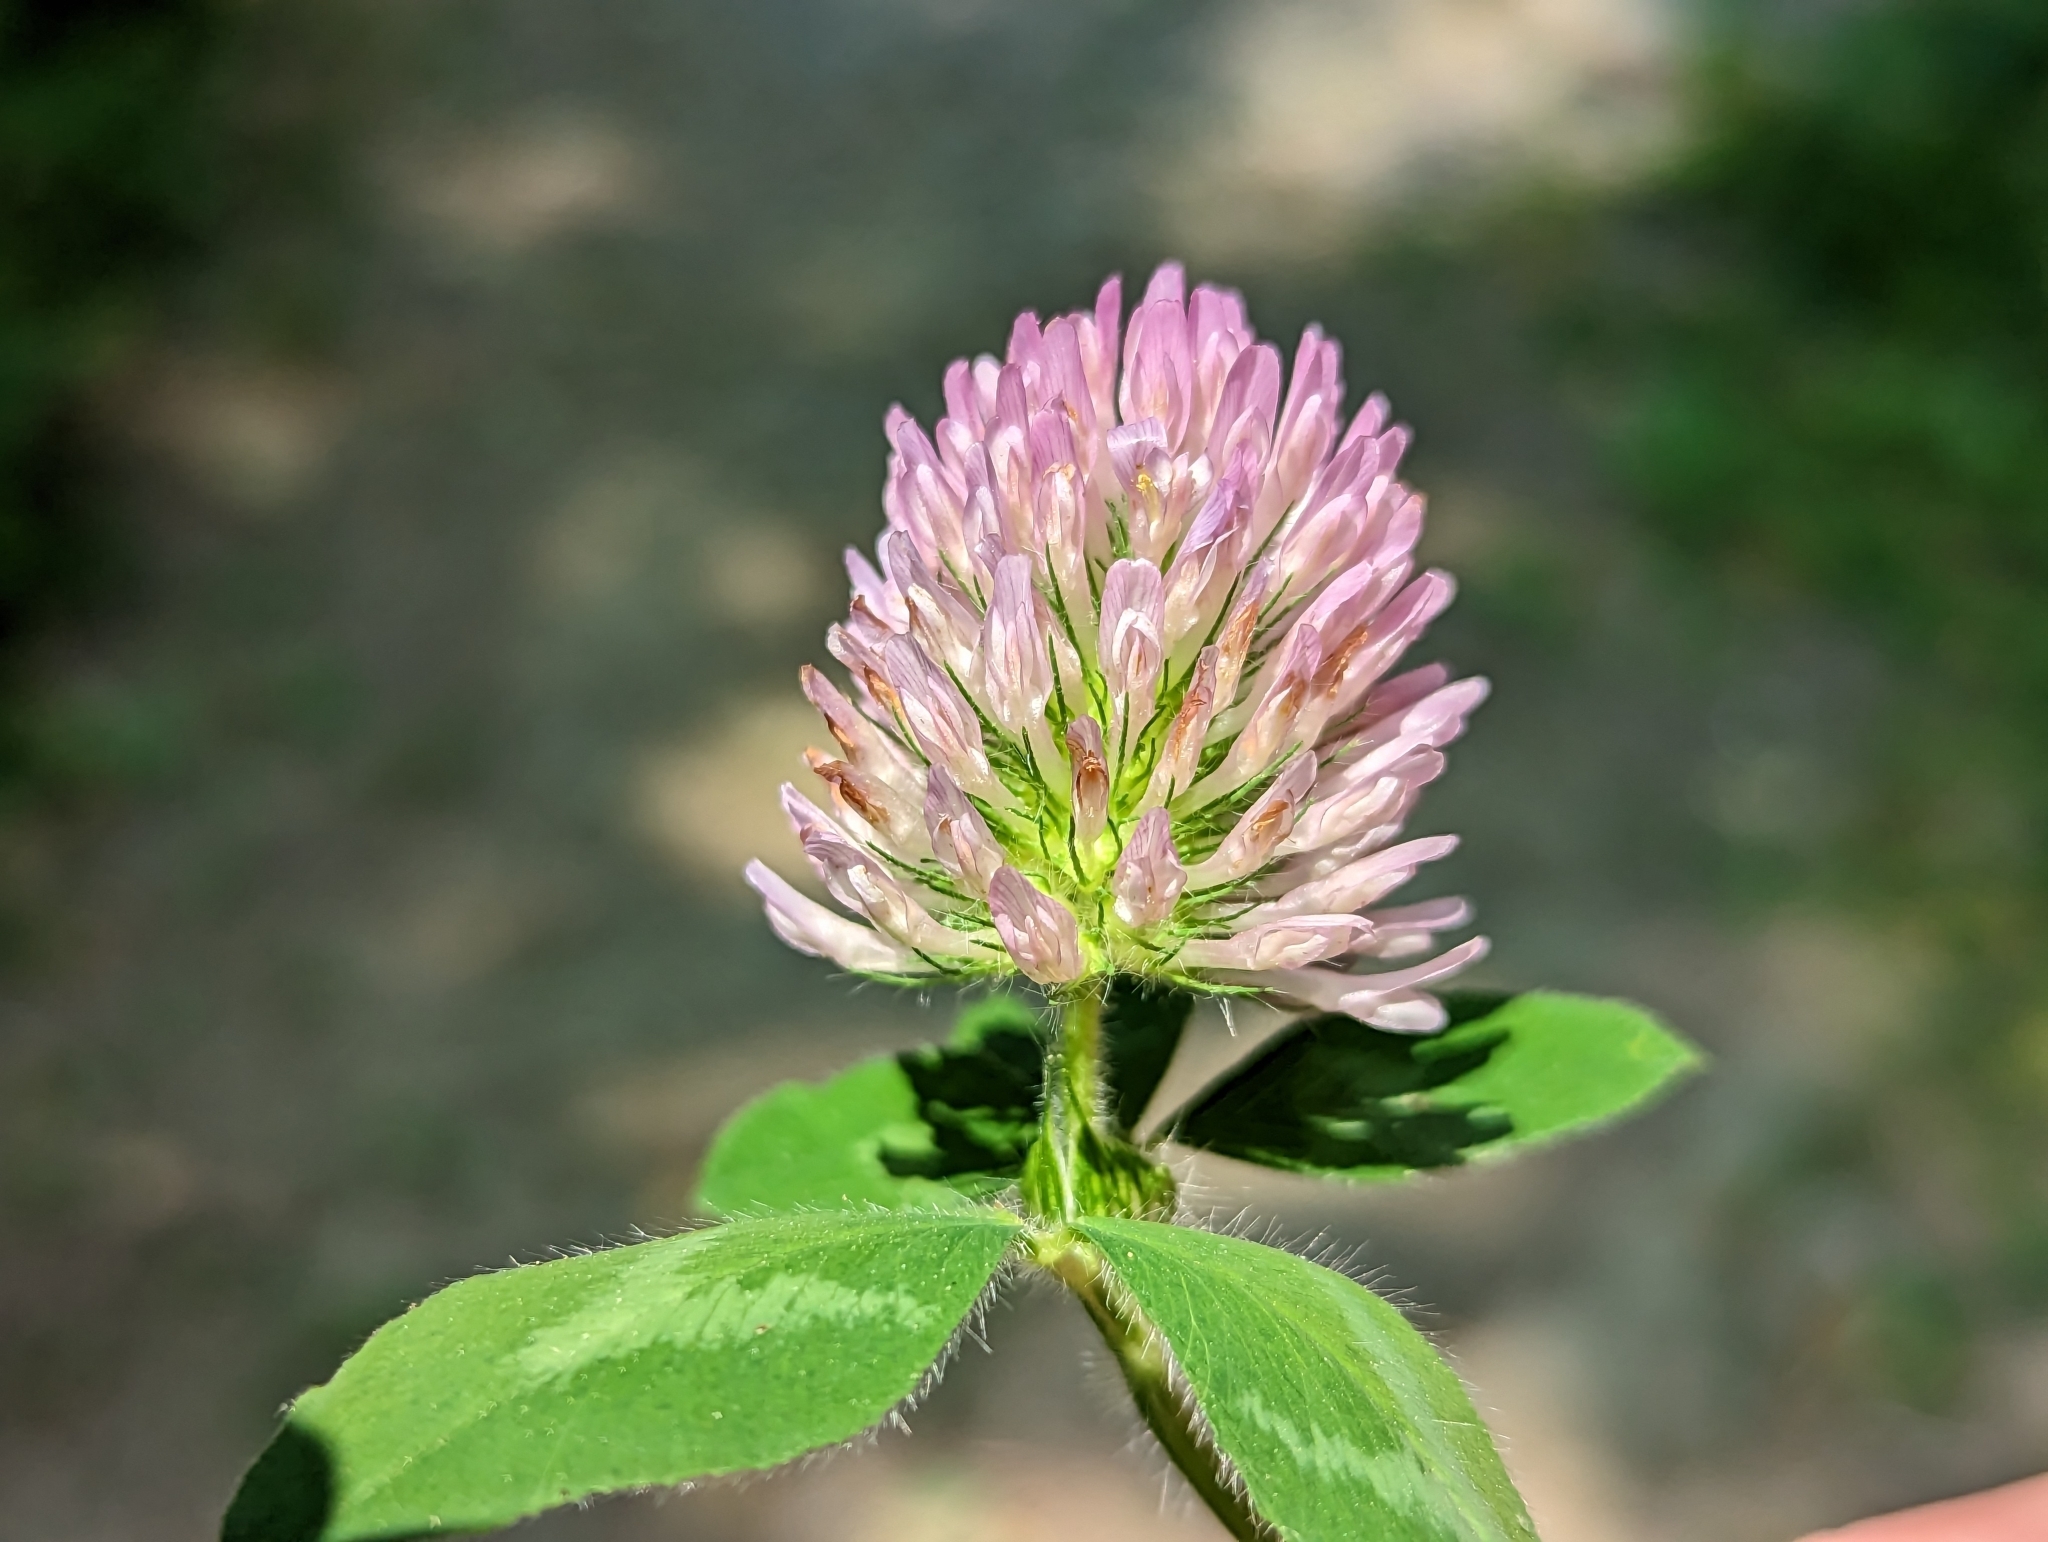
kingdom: Plantae
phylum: Tracheophyta
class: Magnoliopsida
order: Fabales
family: Fabaceae
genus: Trifolium
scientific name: Trifolium pratense
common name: Red clover
